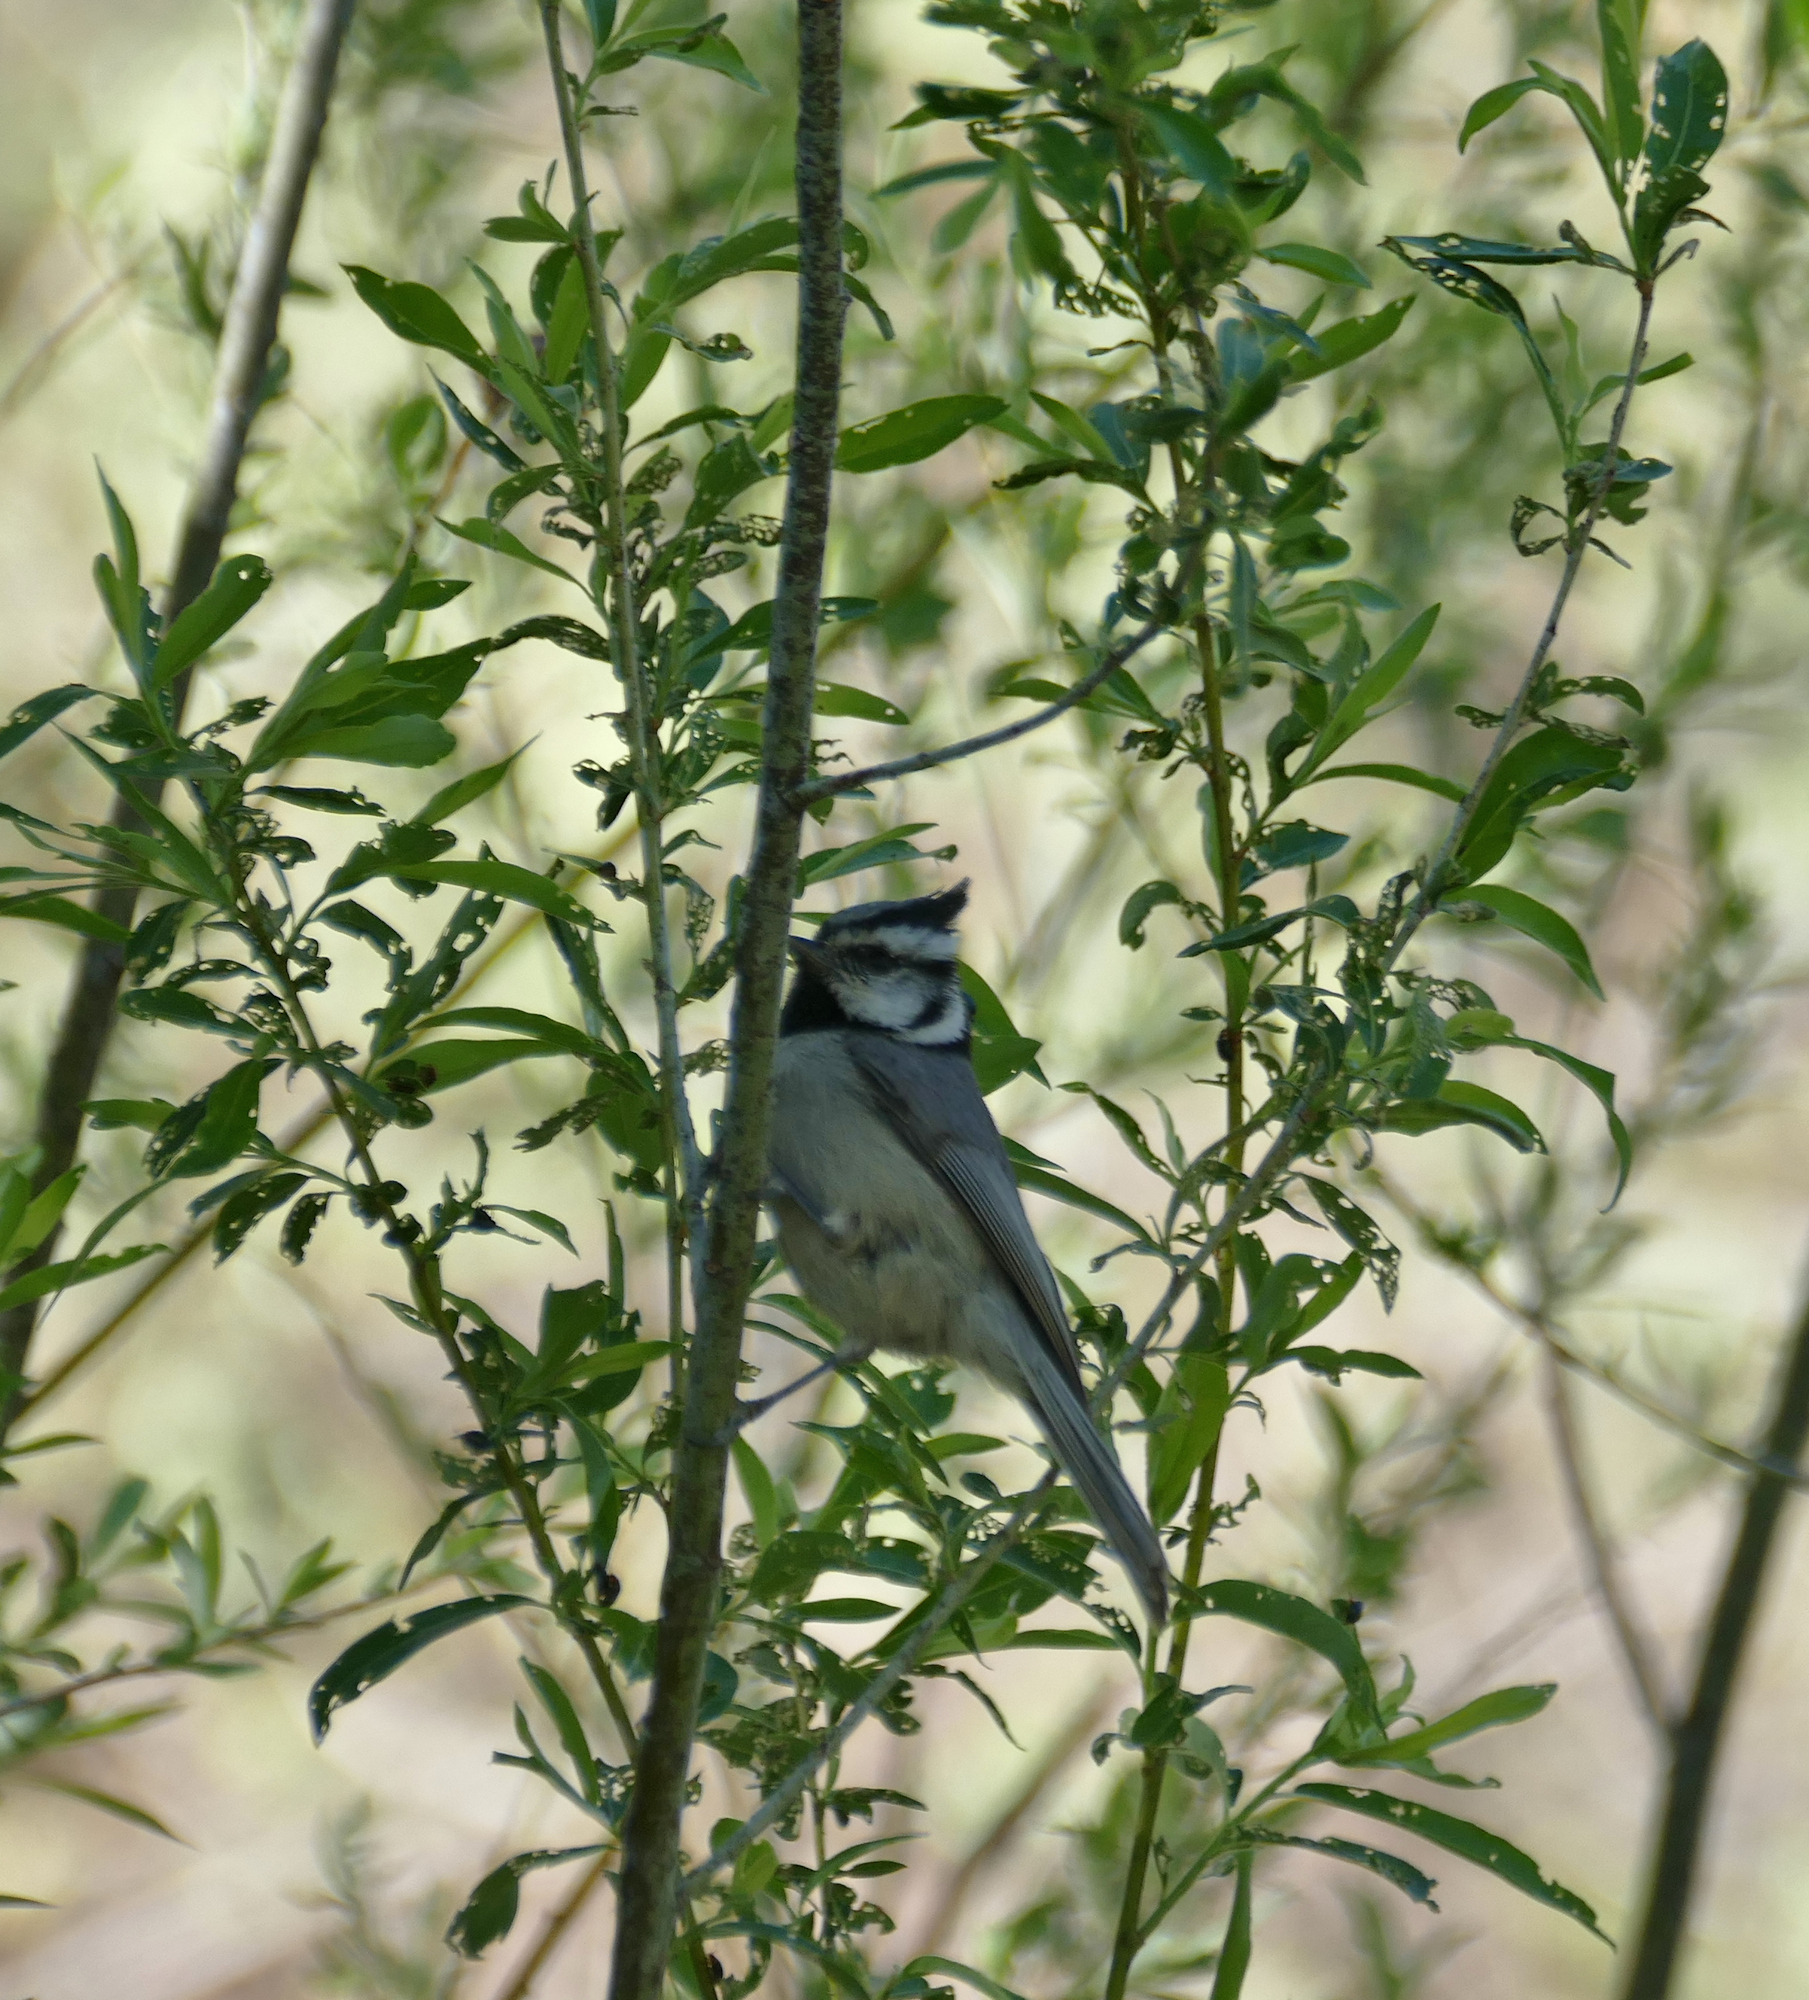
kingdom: Animalia
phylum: Chordata
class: Aves
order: Passeriformes
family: Paridae
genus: Baeolophus
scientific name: Baeolophus wollweberi
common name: Bridled titmouse
